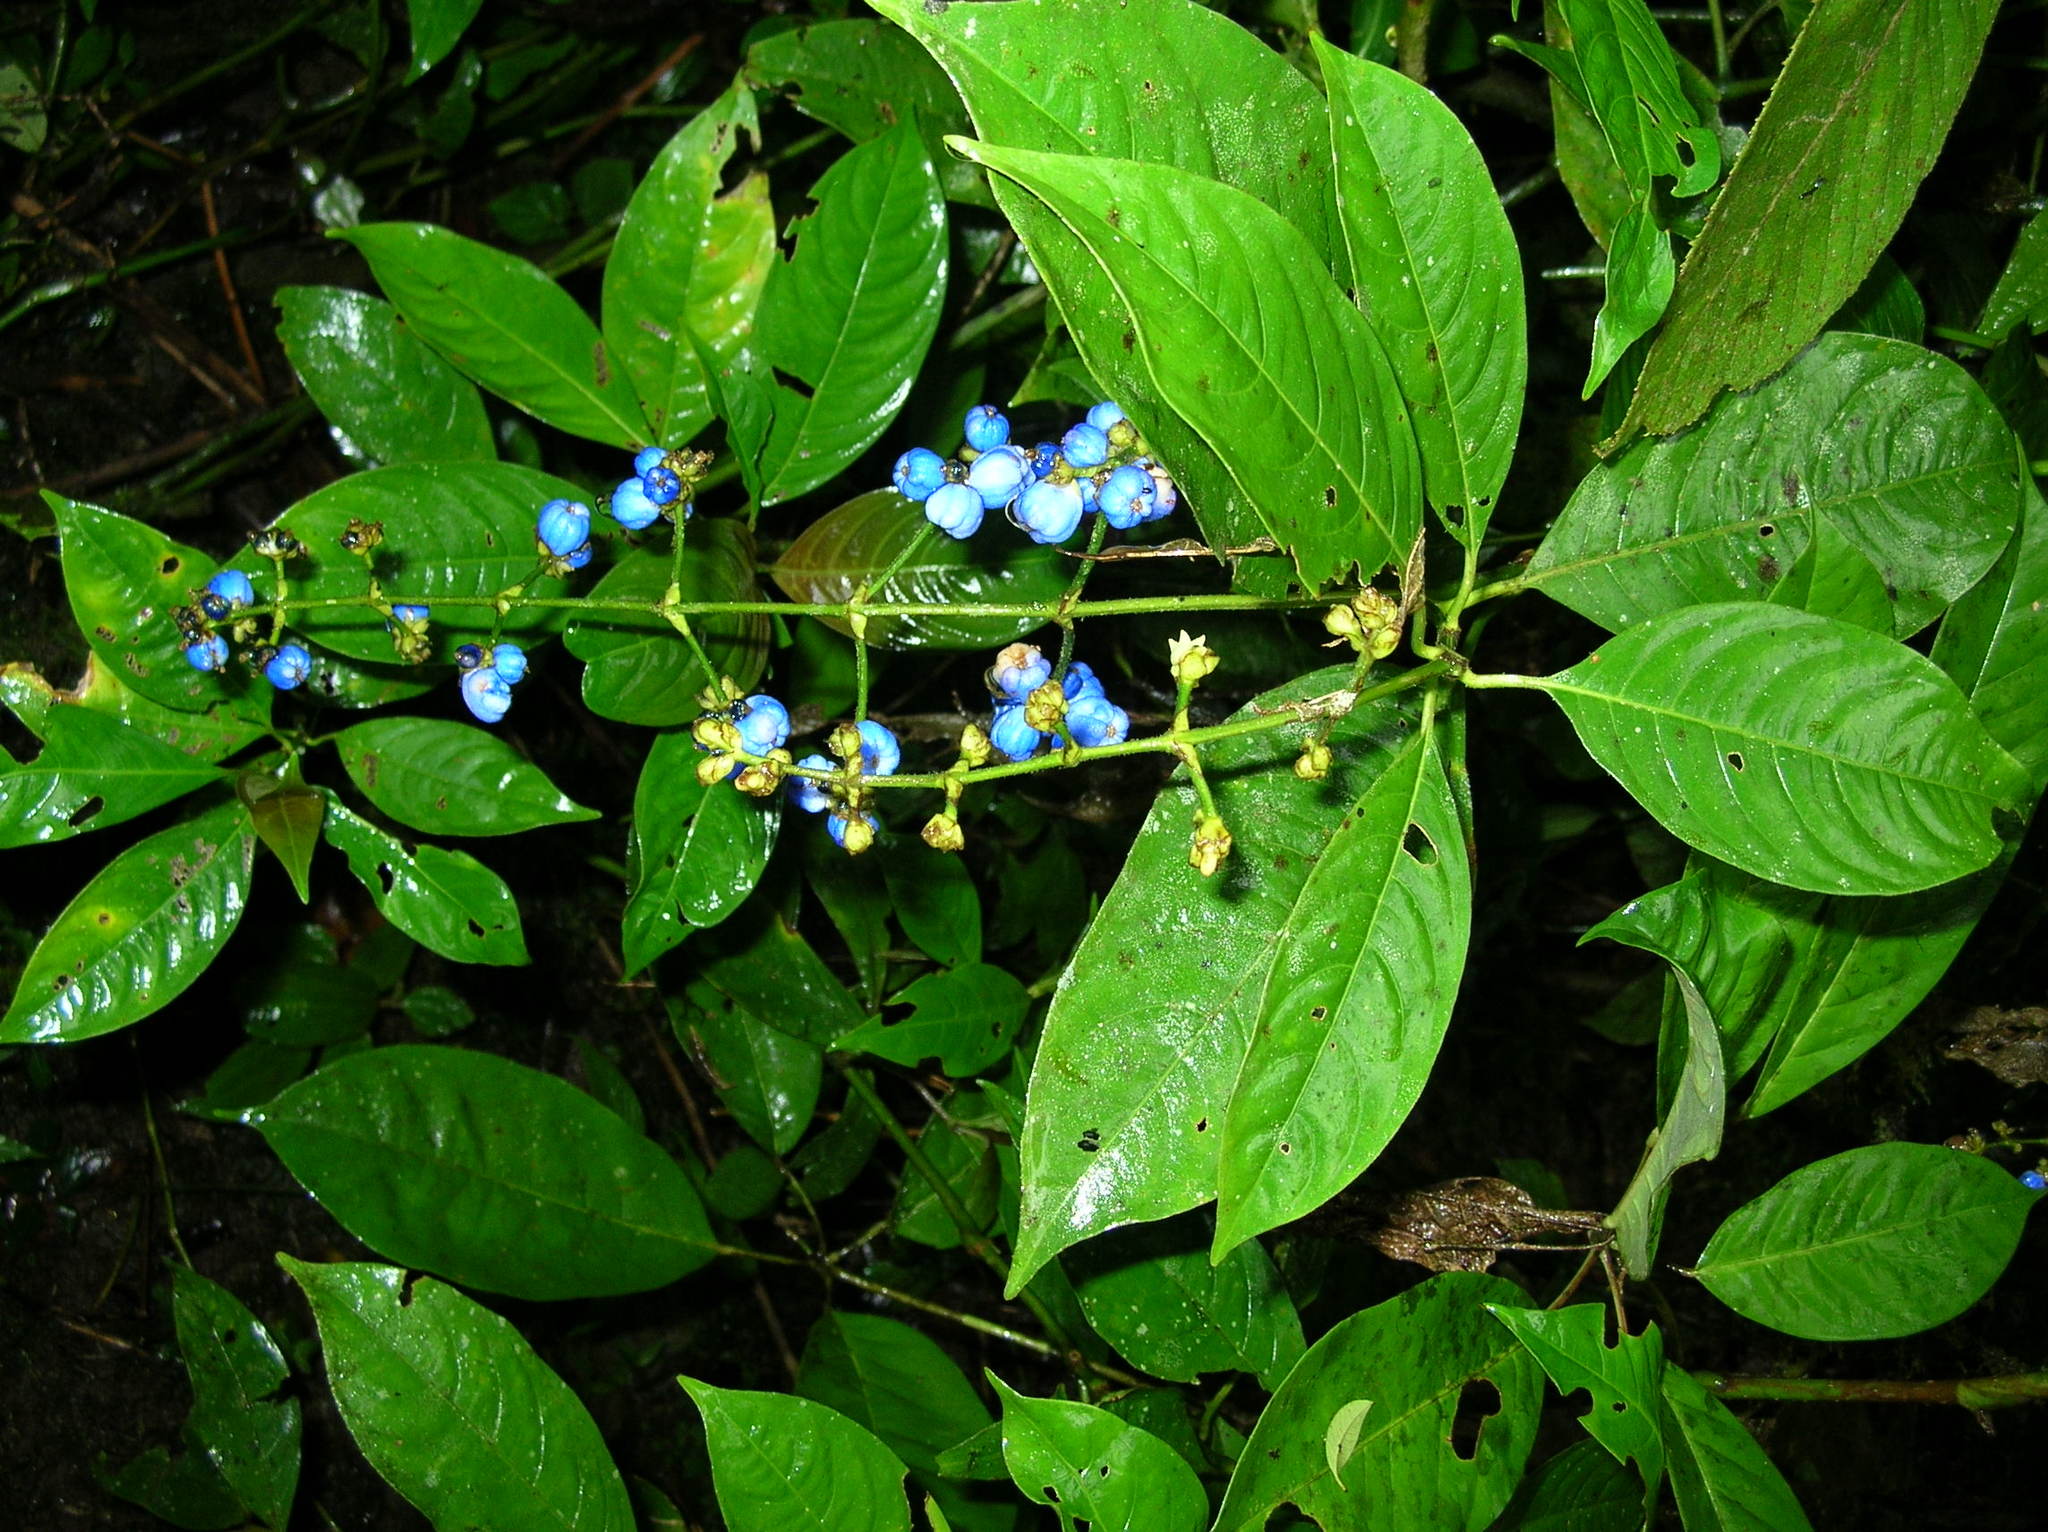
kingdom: Plantae
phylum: Tracheophyta
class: Magnoliopsida
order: Gentianales
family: Rubiaceae
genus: Palicourea
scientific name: Palicourea caerulea
